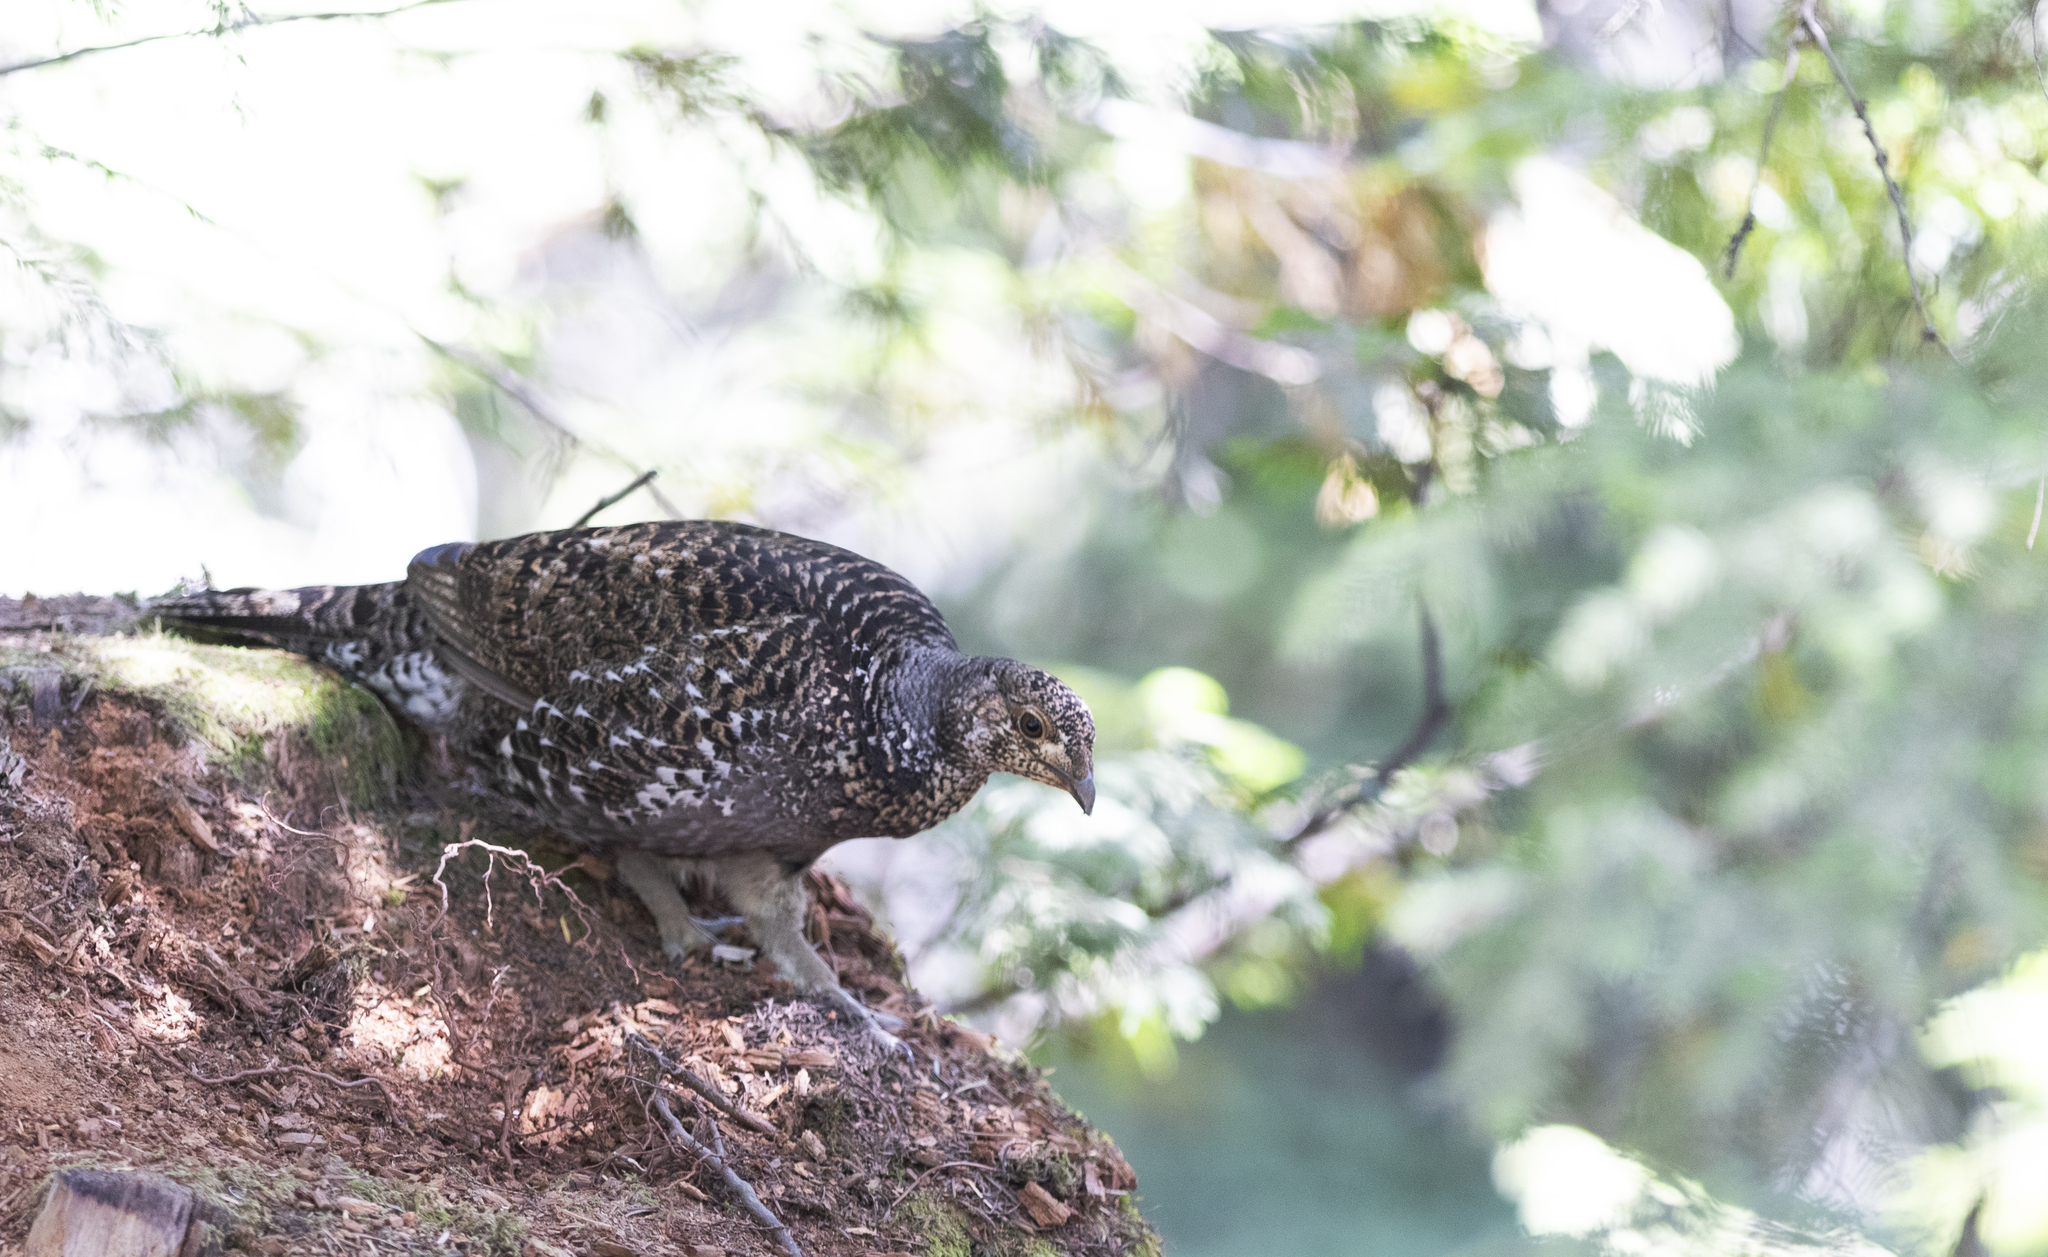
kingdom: Animalia
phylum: Chordata
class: Aves
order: Galliformes
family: Phasianidae
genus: Dendragapus
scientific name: Dendragapus fuliginosus
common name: Sooty grouse
